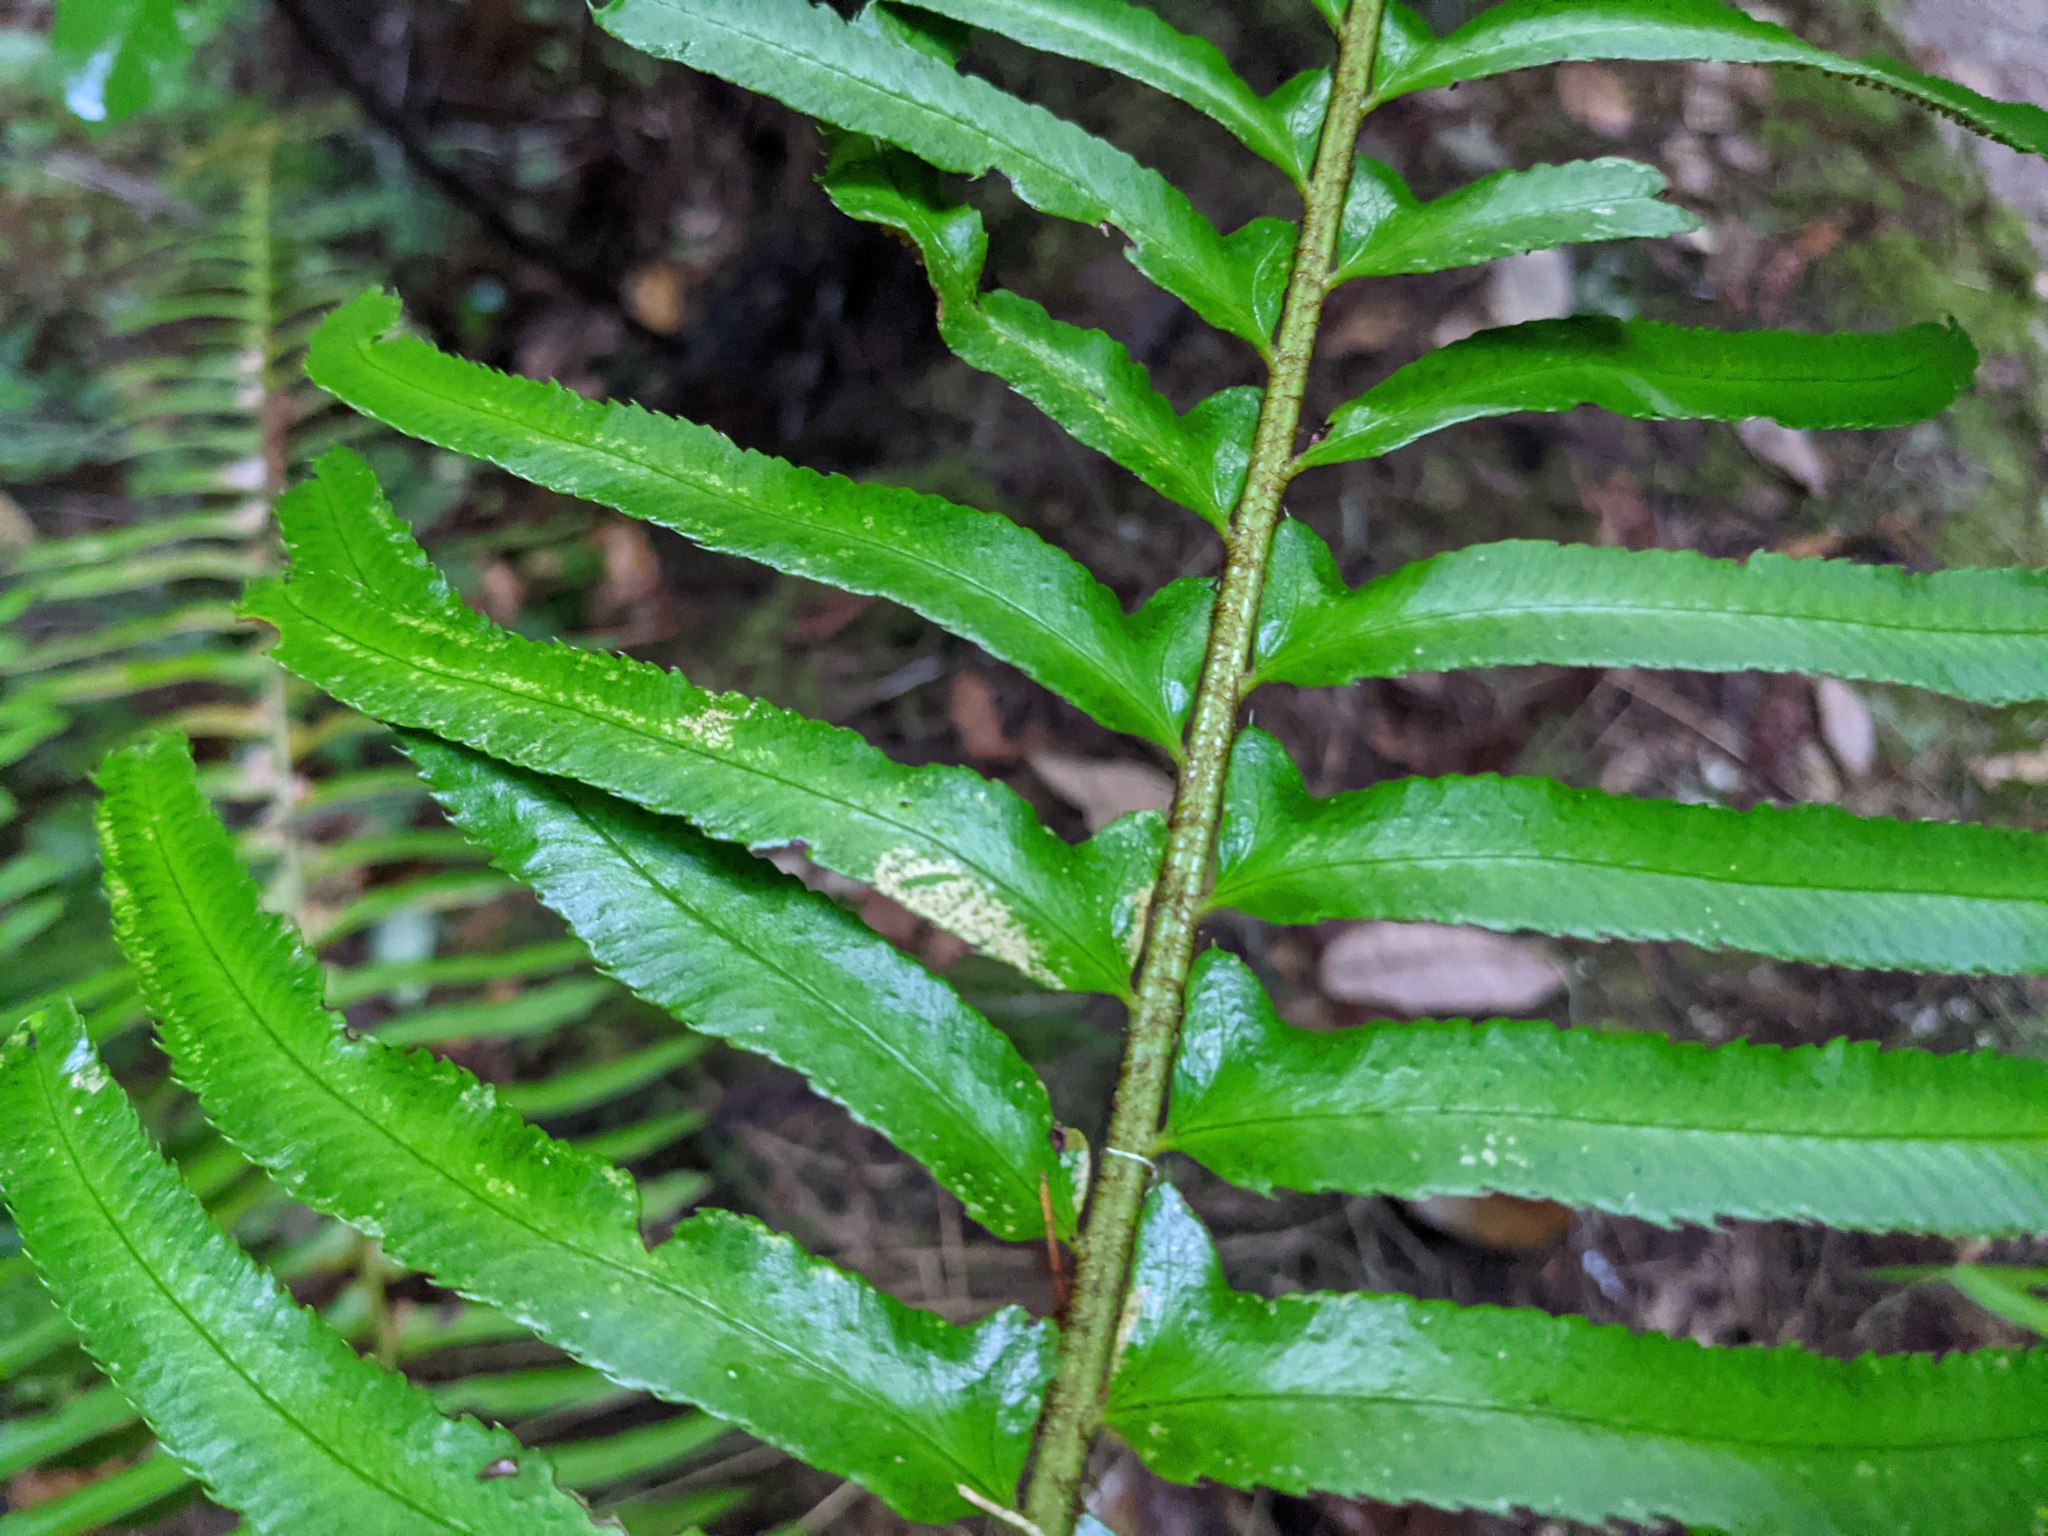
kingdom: Plantae
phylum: Tracheophyta
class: Polypodiopsida
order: Polypodiales
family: Dryopteridaceae
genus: Polystichum
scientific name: Polystichum munitum
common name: Western sword-fern
